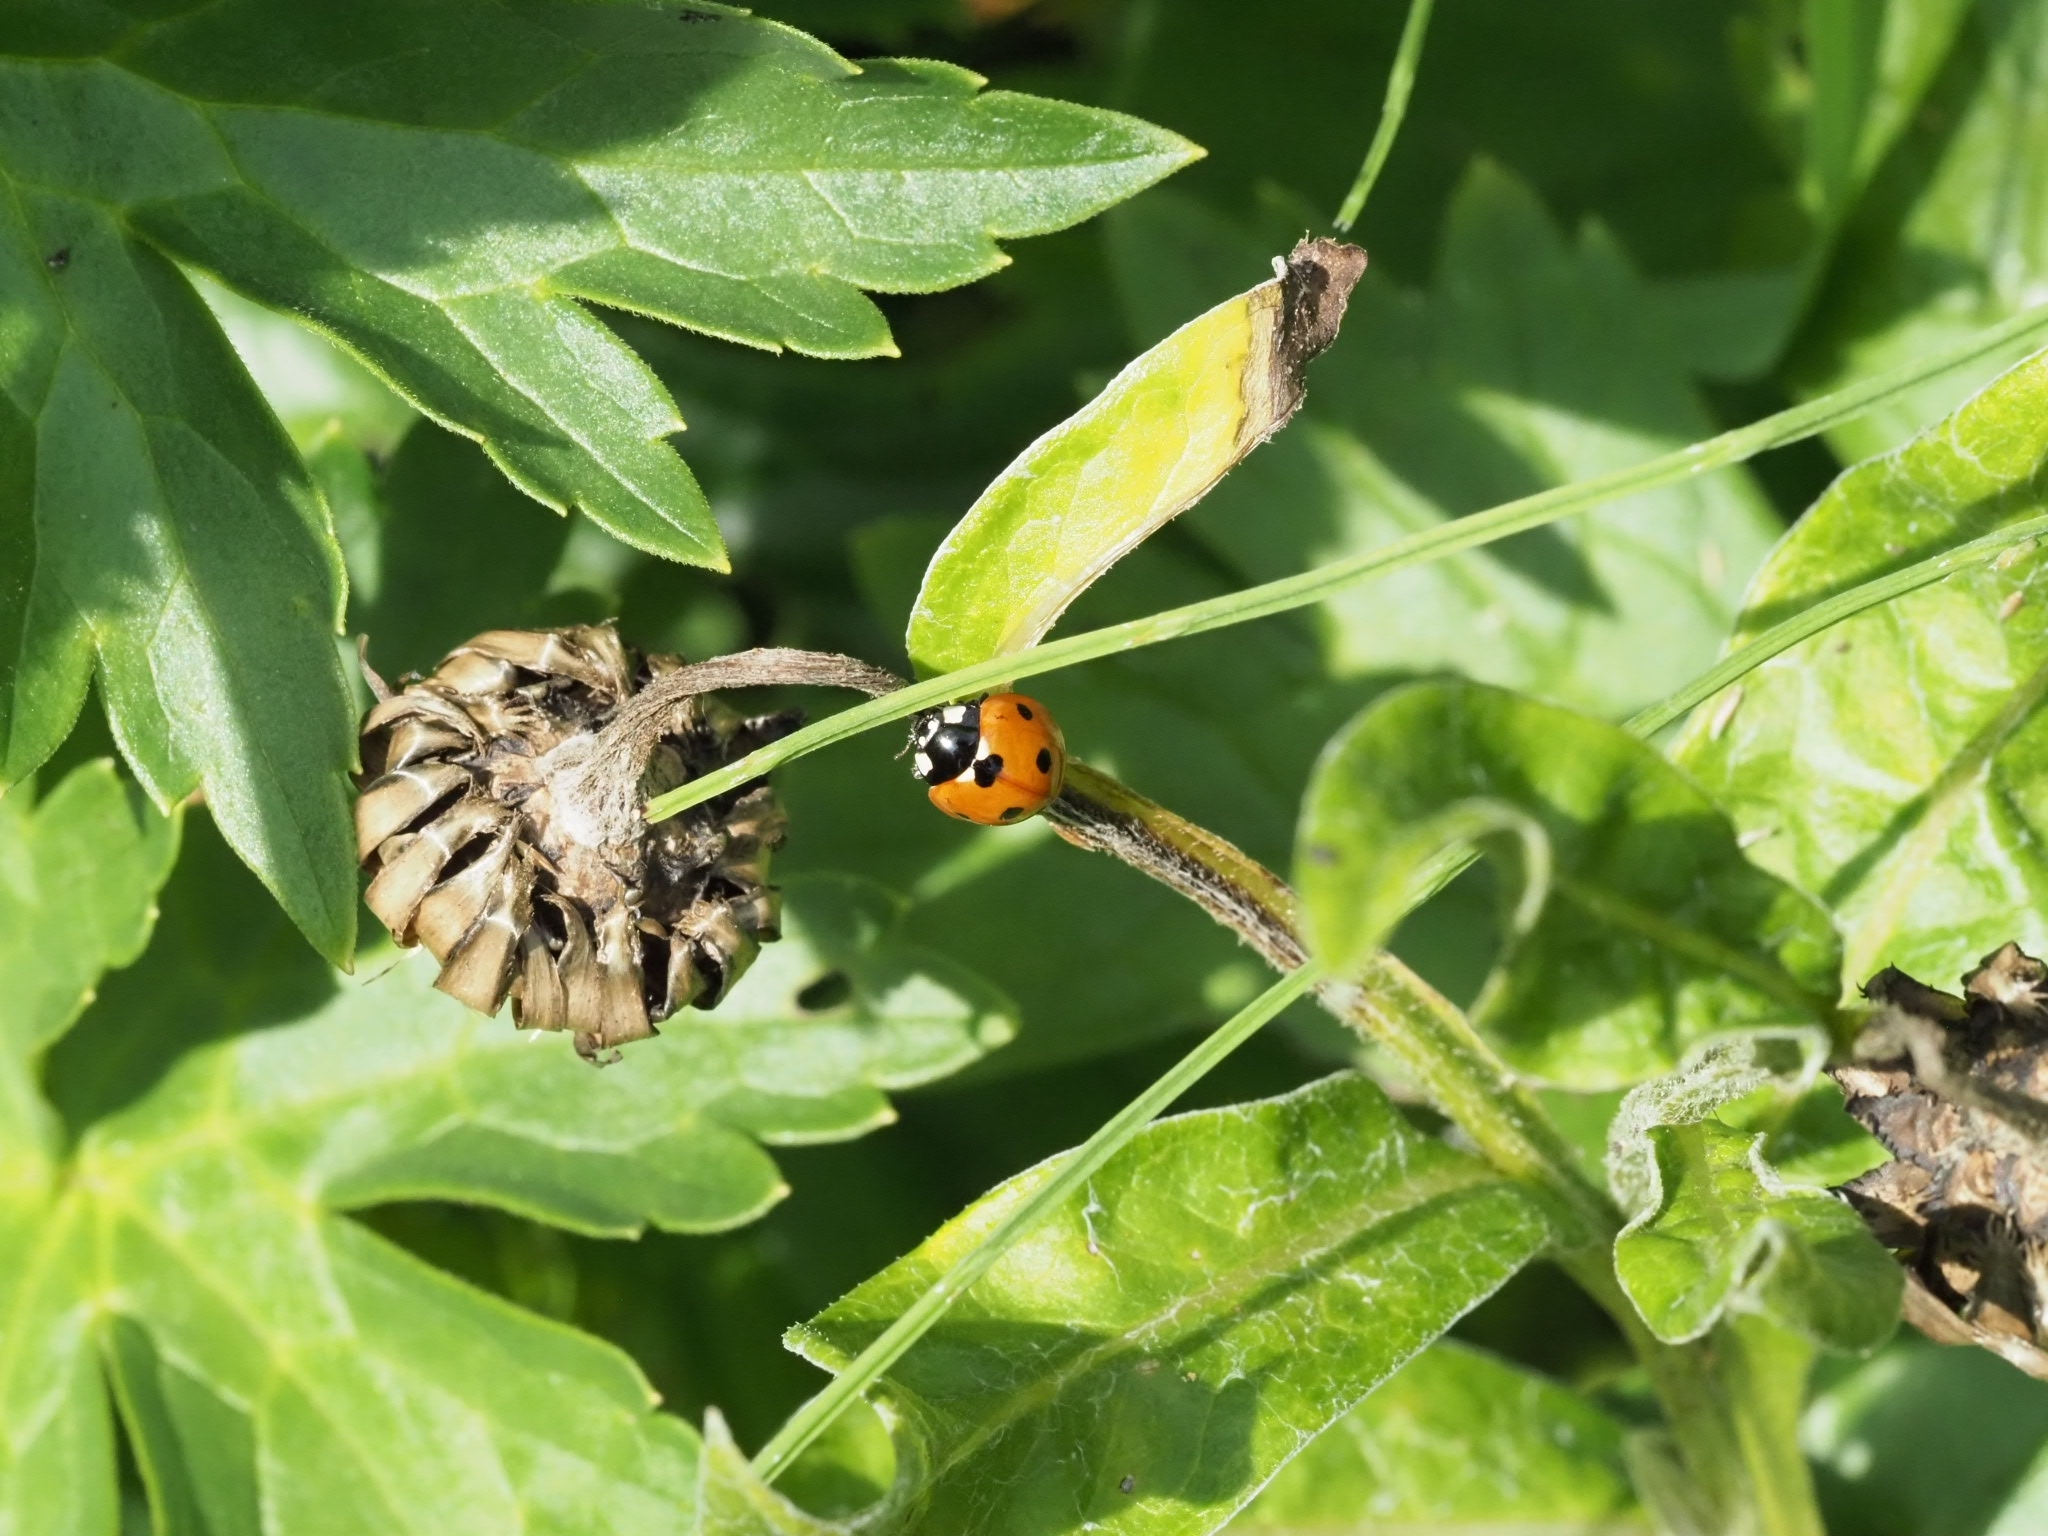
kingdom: Animalia
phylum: Arthropoda
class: Insecta
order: Coleoptera
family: Coccinellidae
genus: Coccinella
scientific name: Coccinella septempunctata
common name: Sevenspotted lady beetle
